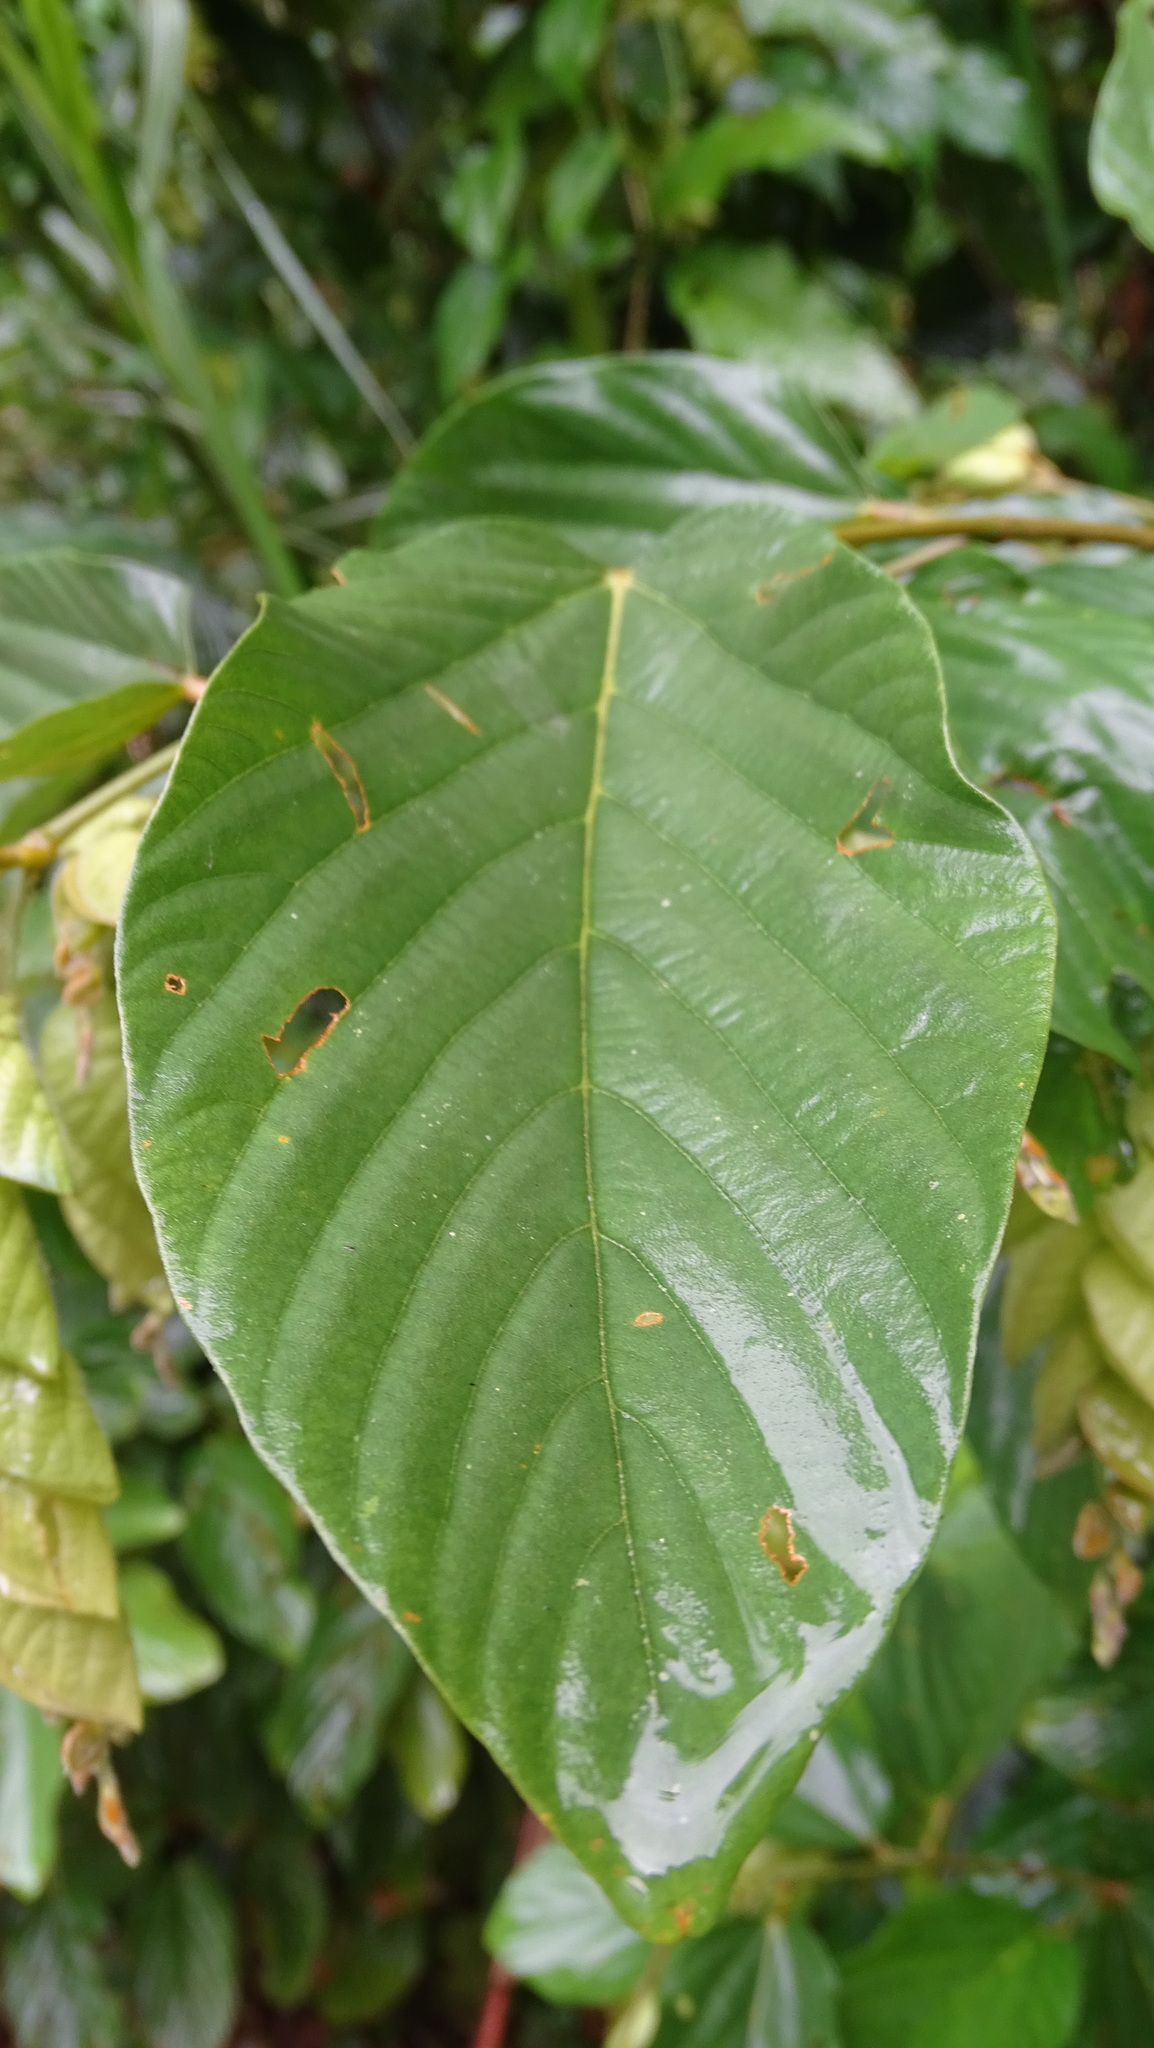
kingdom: Plantae
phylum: Tracheophyta
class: Magnoliopsida
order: Fabales
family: Fabaceae
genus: Flemingia
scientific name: Flemingia strobilifera
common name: Wild hops
